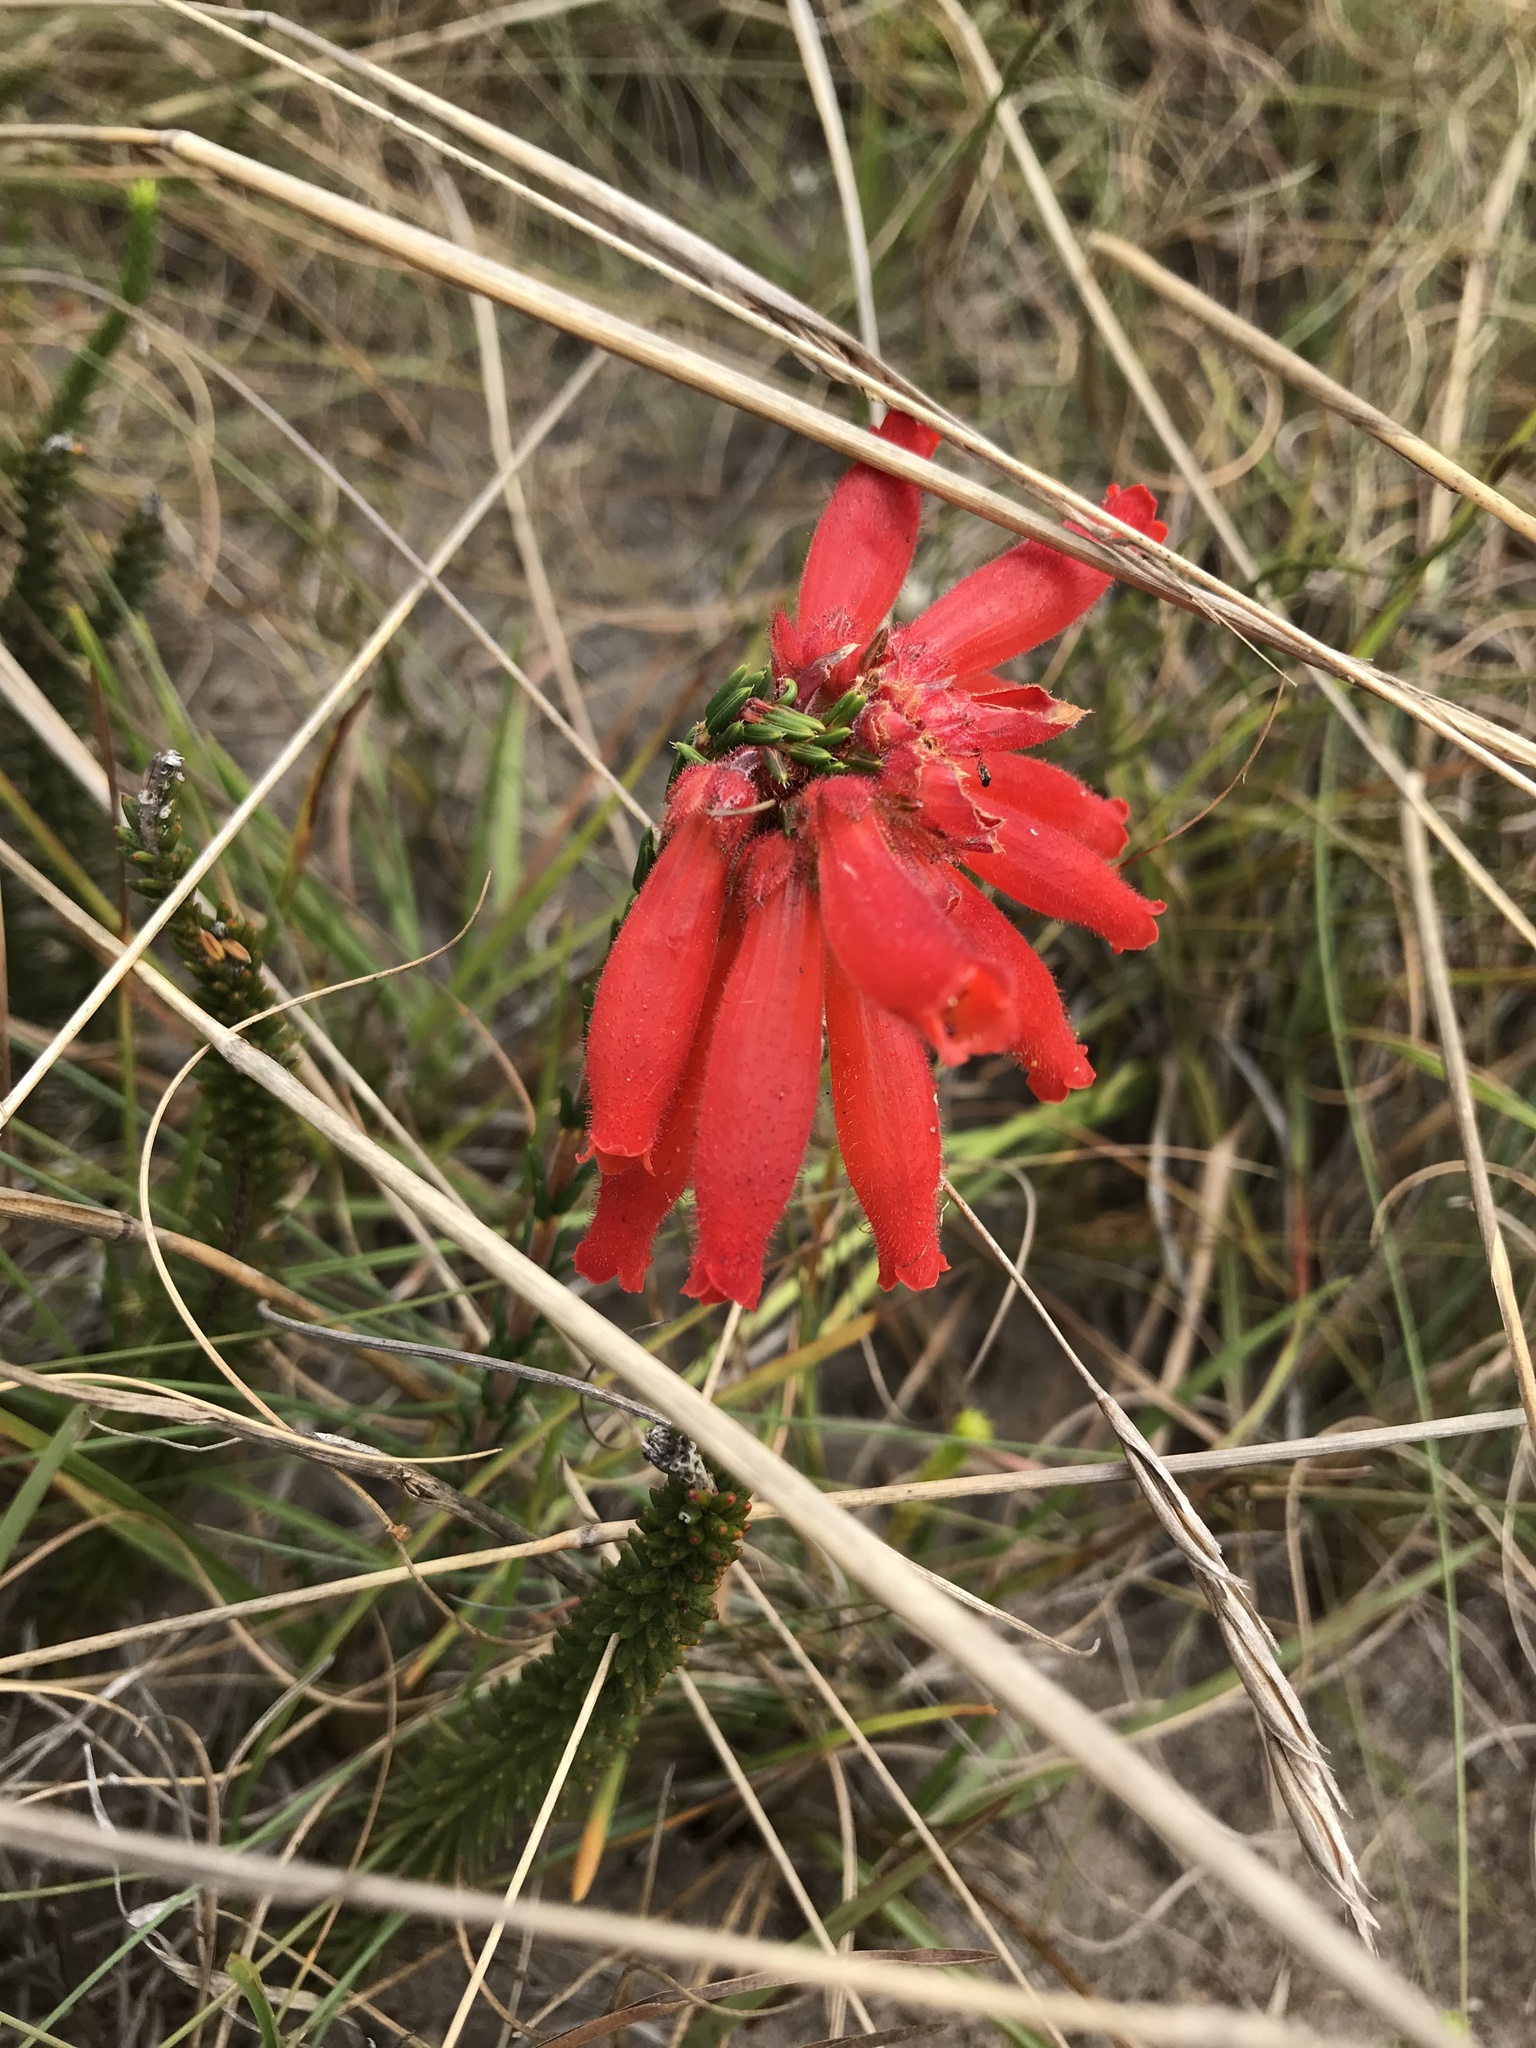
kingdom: Plantae
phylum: Tracheophyta
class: Magnoliopsida
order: Ericales
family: Ericaceae
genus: Erica
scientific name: Erica cerinthoides
